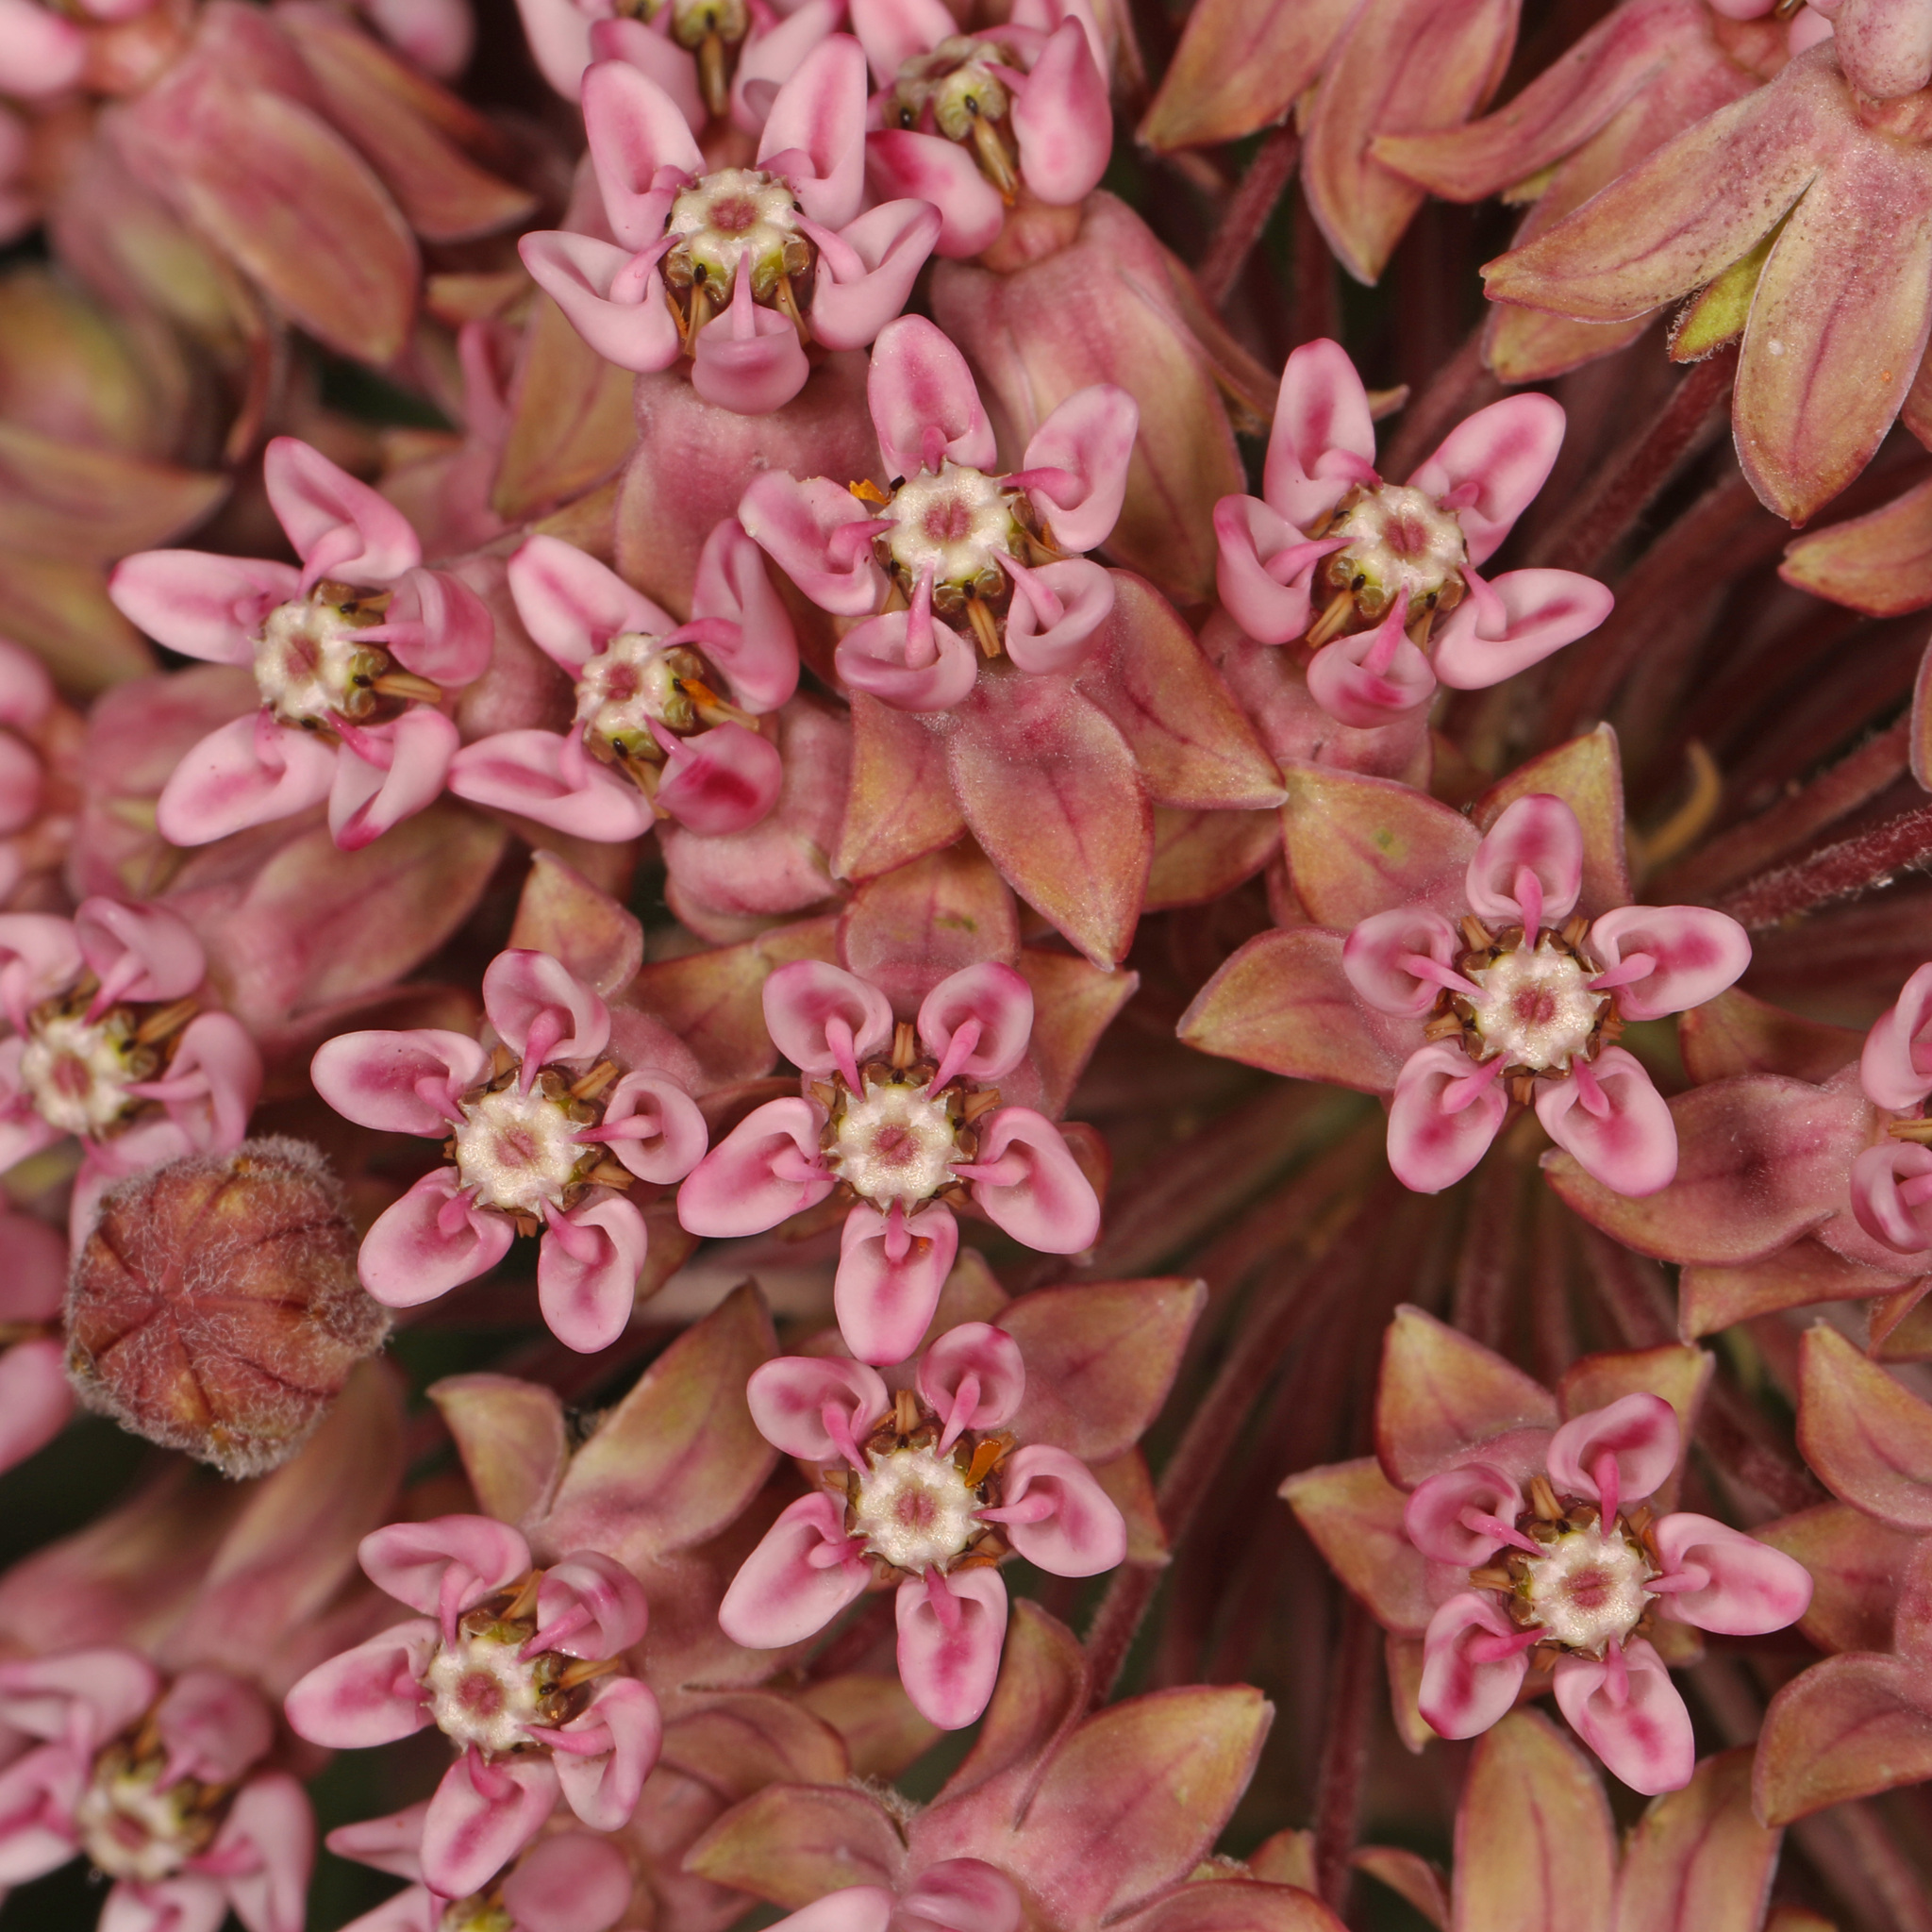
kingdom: Plantae
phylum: Tracheophyta
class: Magnoliopsida
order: Gentianales
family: Apocynaceae
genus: Asclepias
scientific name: Asclepias syriaca
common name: Common milkweed
